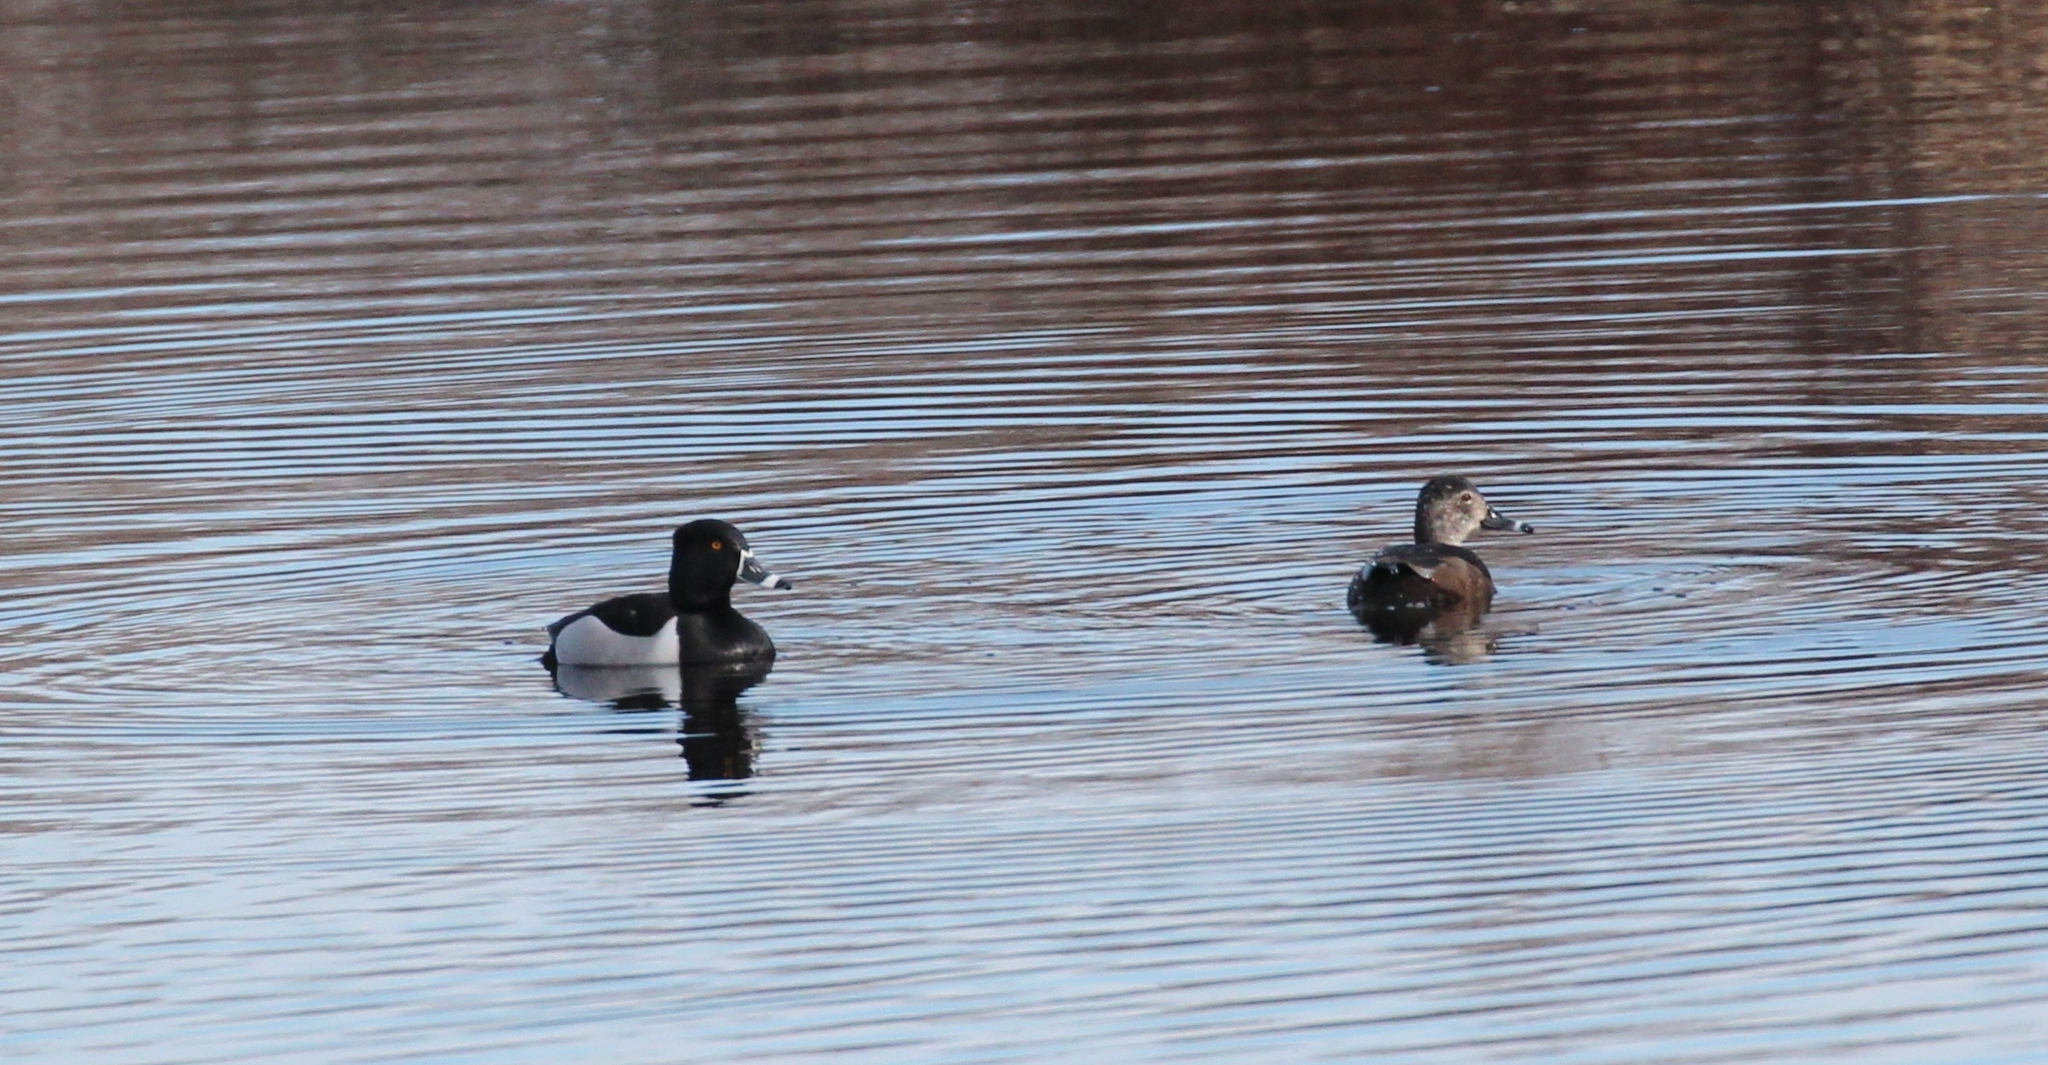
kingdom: Animalia
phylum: Chordata
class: Aves
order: Anseriformes
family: Anatidae
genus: Aythya
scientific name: Aythya collaris
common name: Ring-necked duck
